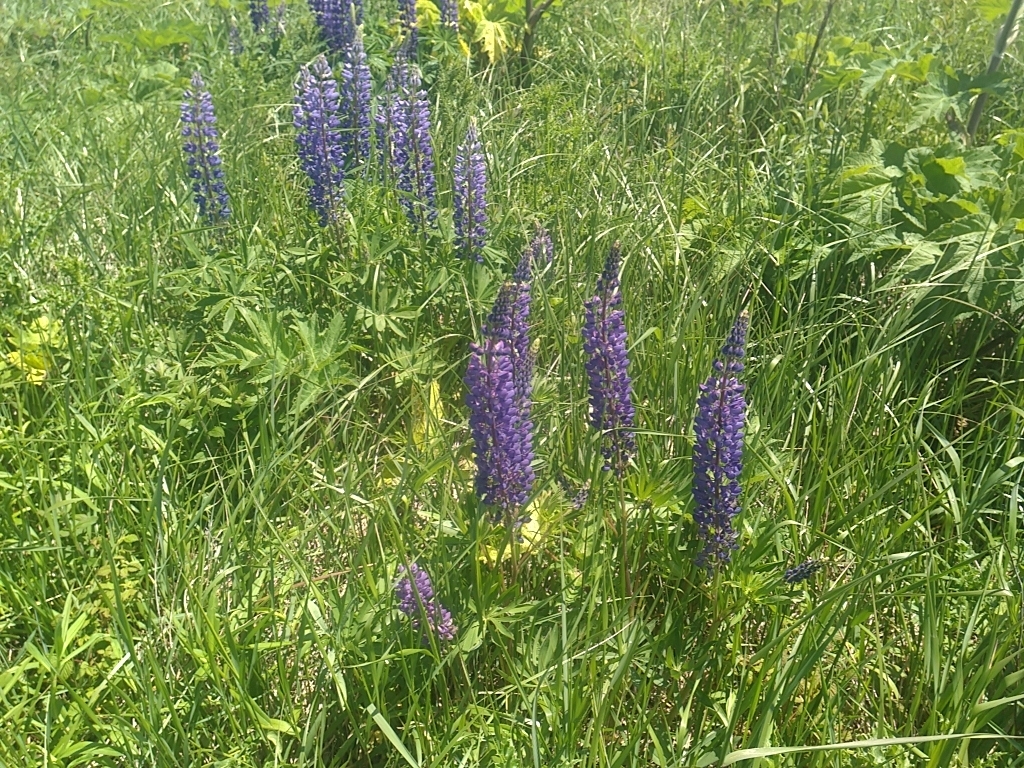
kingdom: Plantae
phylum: Tracheophyta
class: Magnoliopsida
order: Fabales
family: Fabaceae
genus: Lupinus
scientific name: Lupinus polyphyllus
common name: Garden lupin
